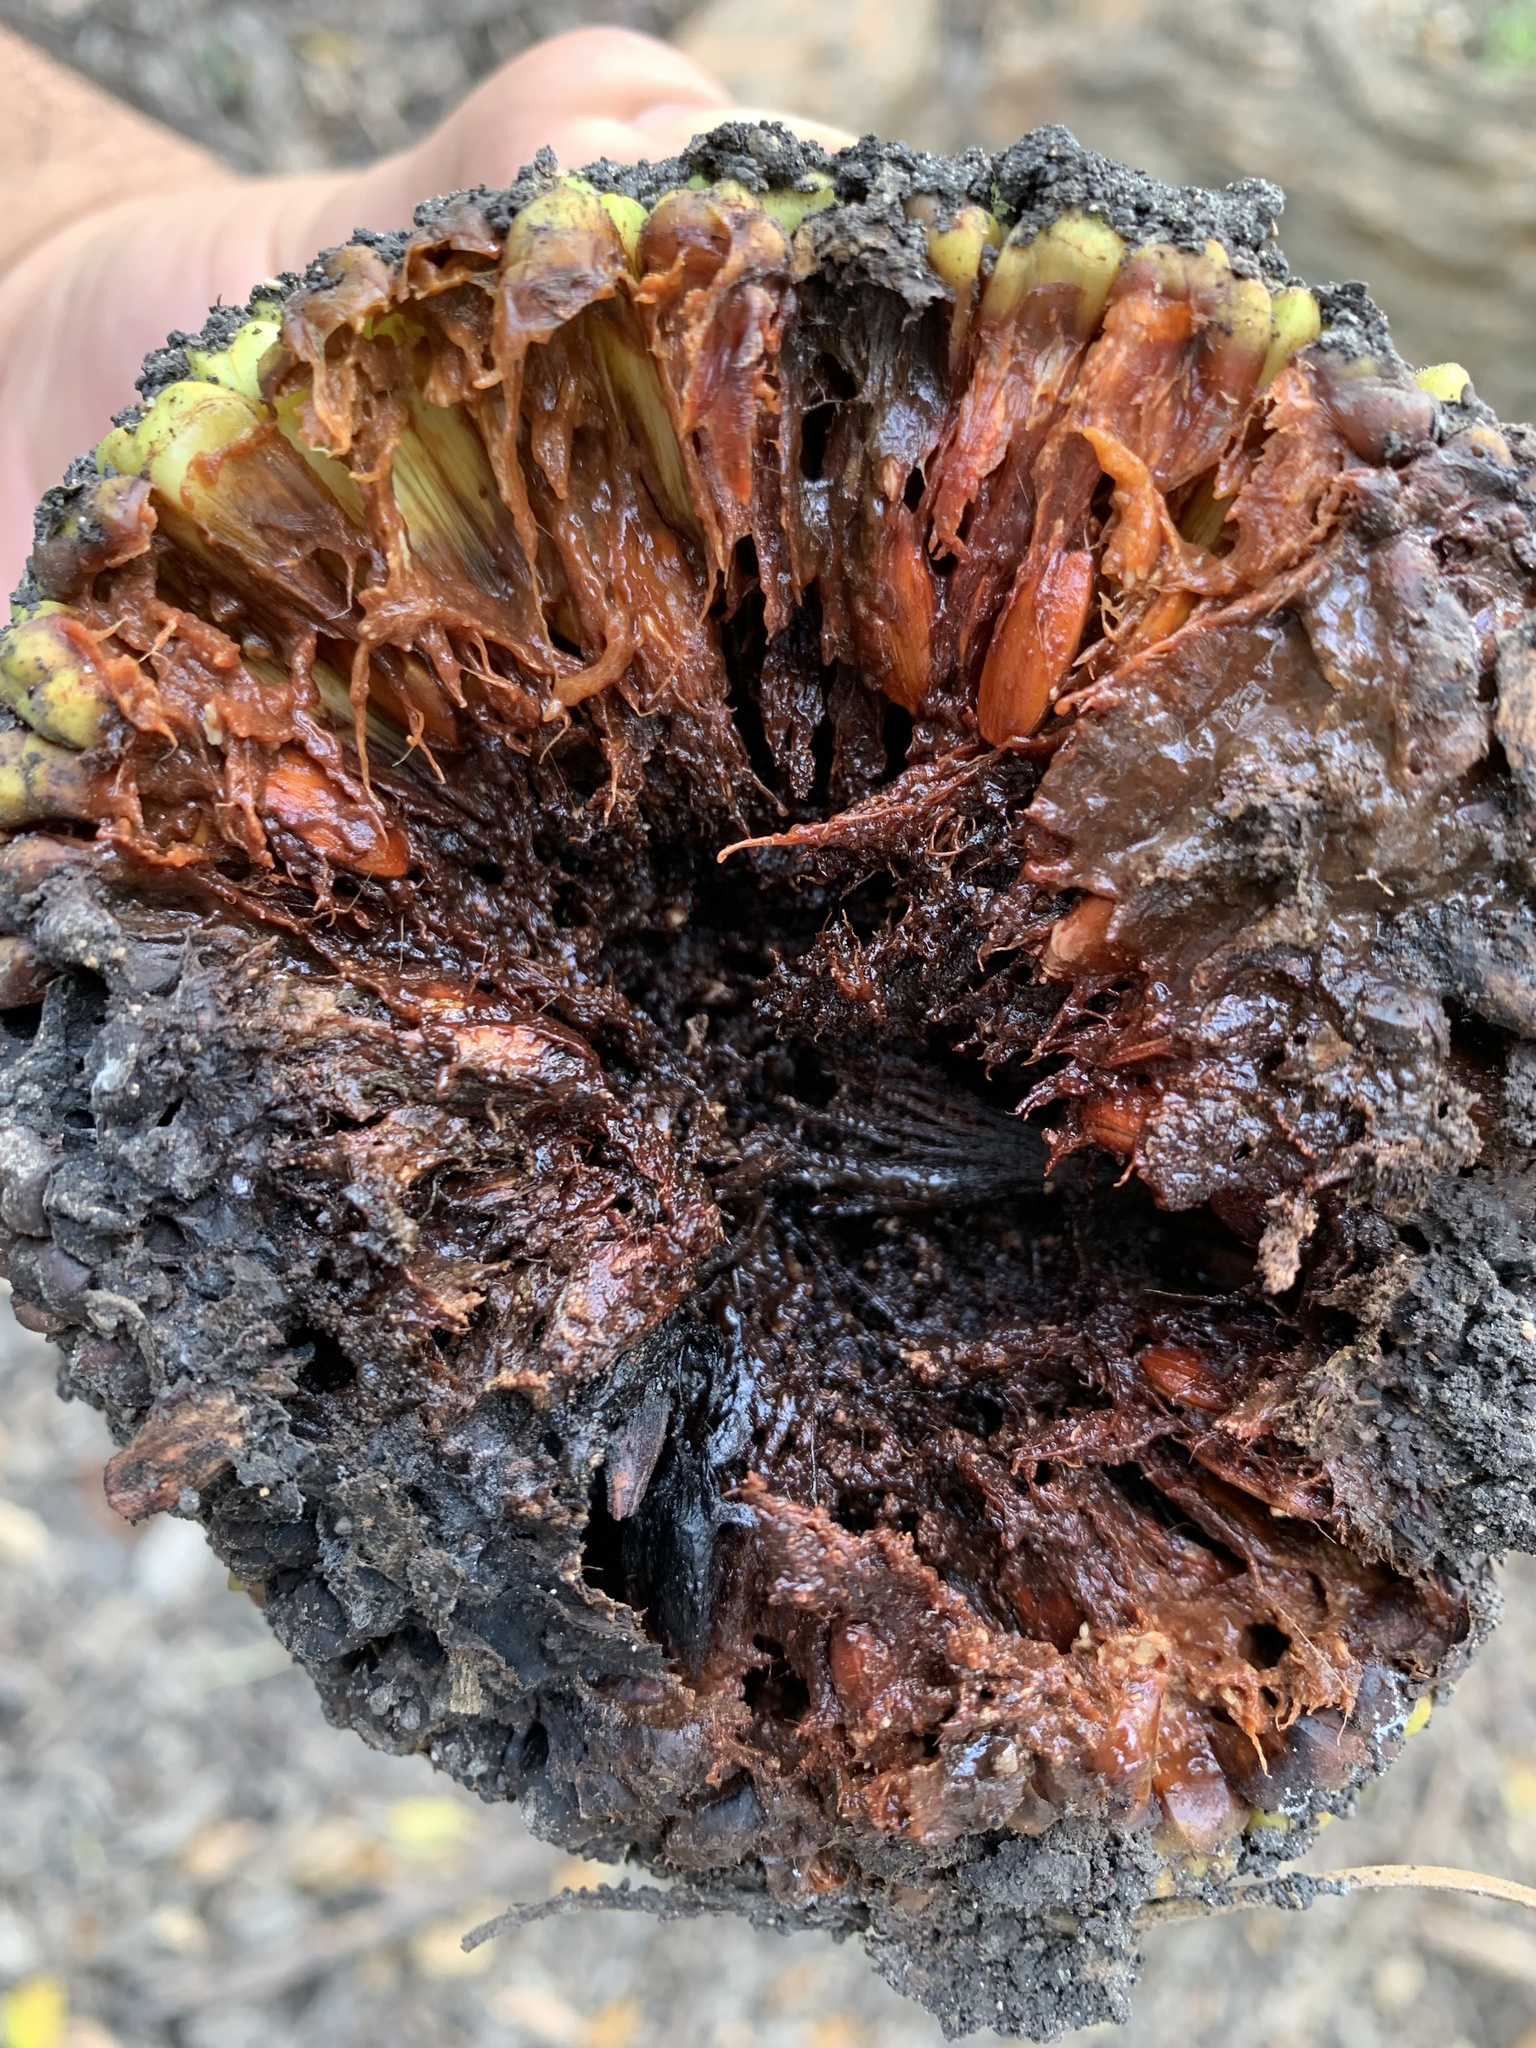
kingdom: Plantae
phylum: Tracheophyta
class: Magnoliopsida
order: Rosales
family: Moraceae
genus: Maclura
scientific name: Maclura pomifera
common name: Osage-orange
